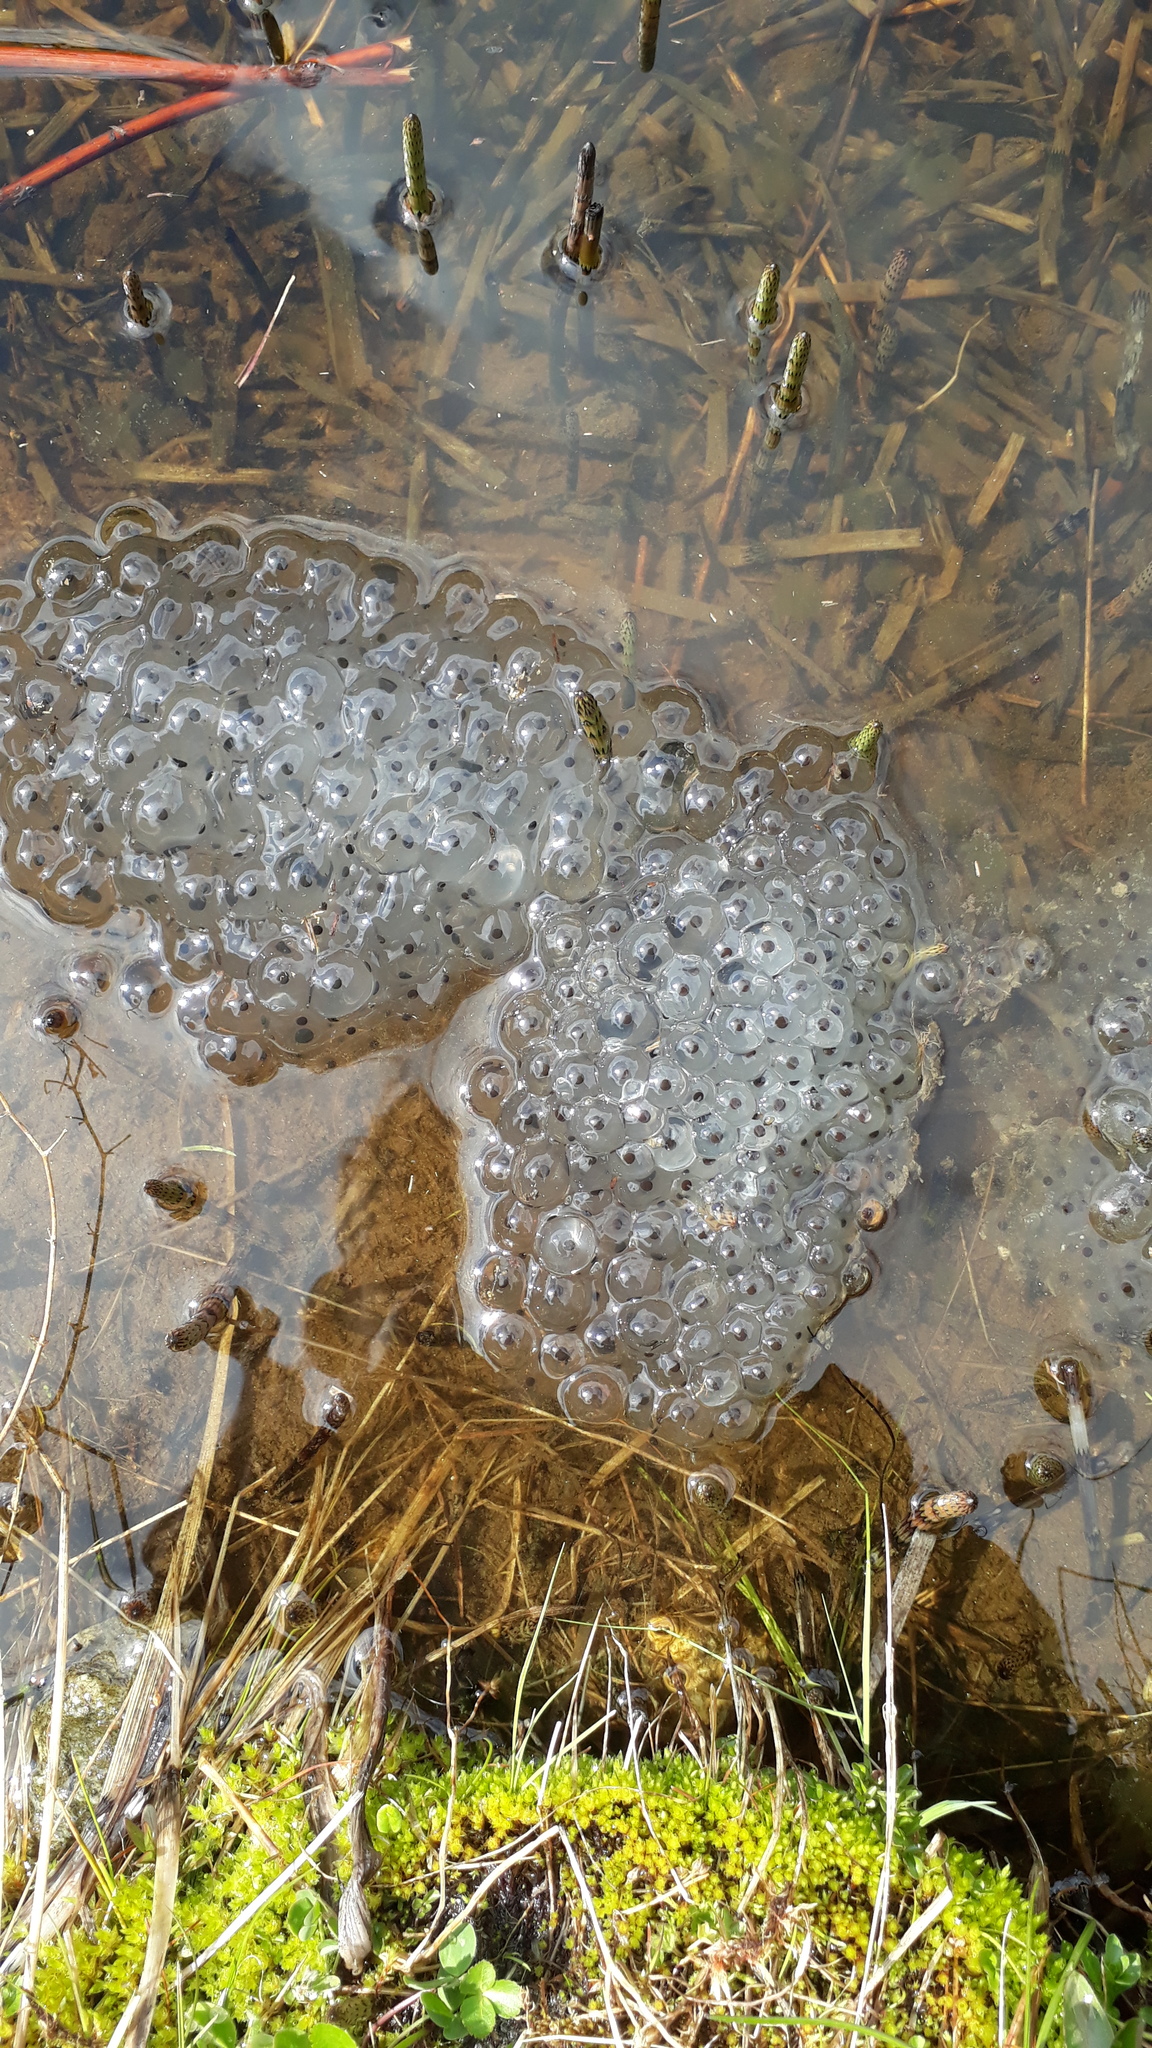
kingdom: Animalia
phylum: Chordata
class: Amphibia
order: Anura
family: Ranidae
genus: Rana
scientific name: Rana temporaria
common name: Common frog
